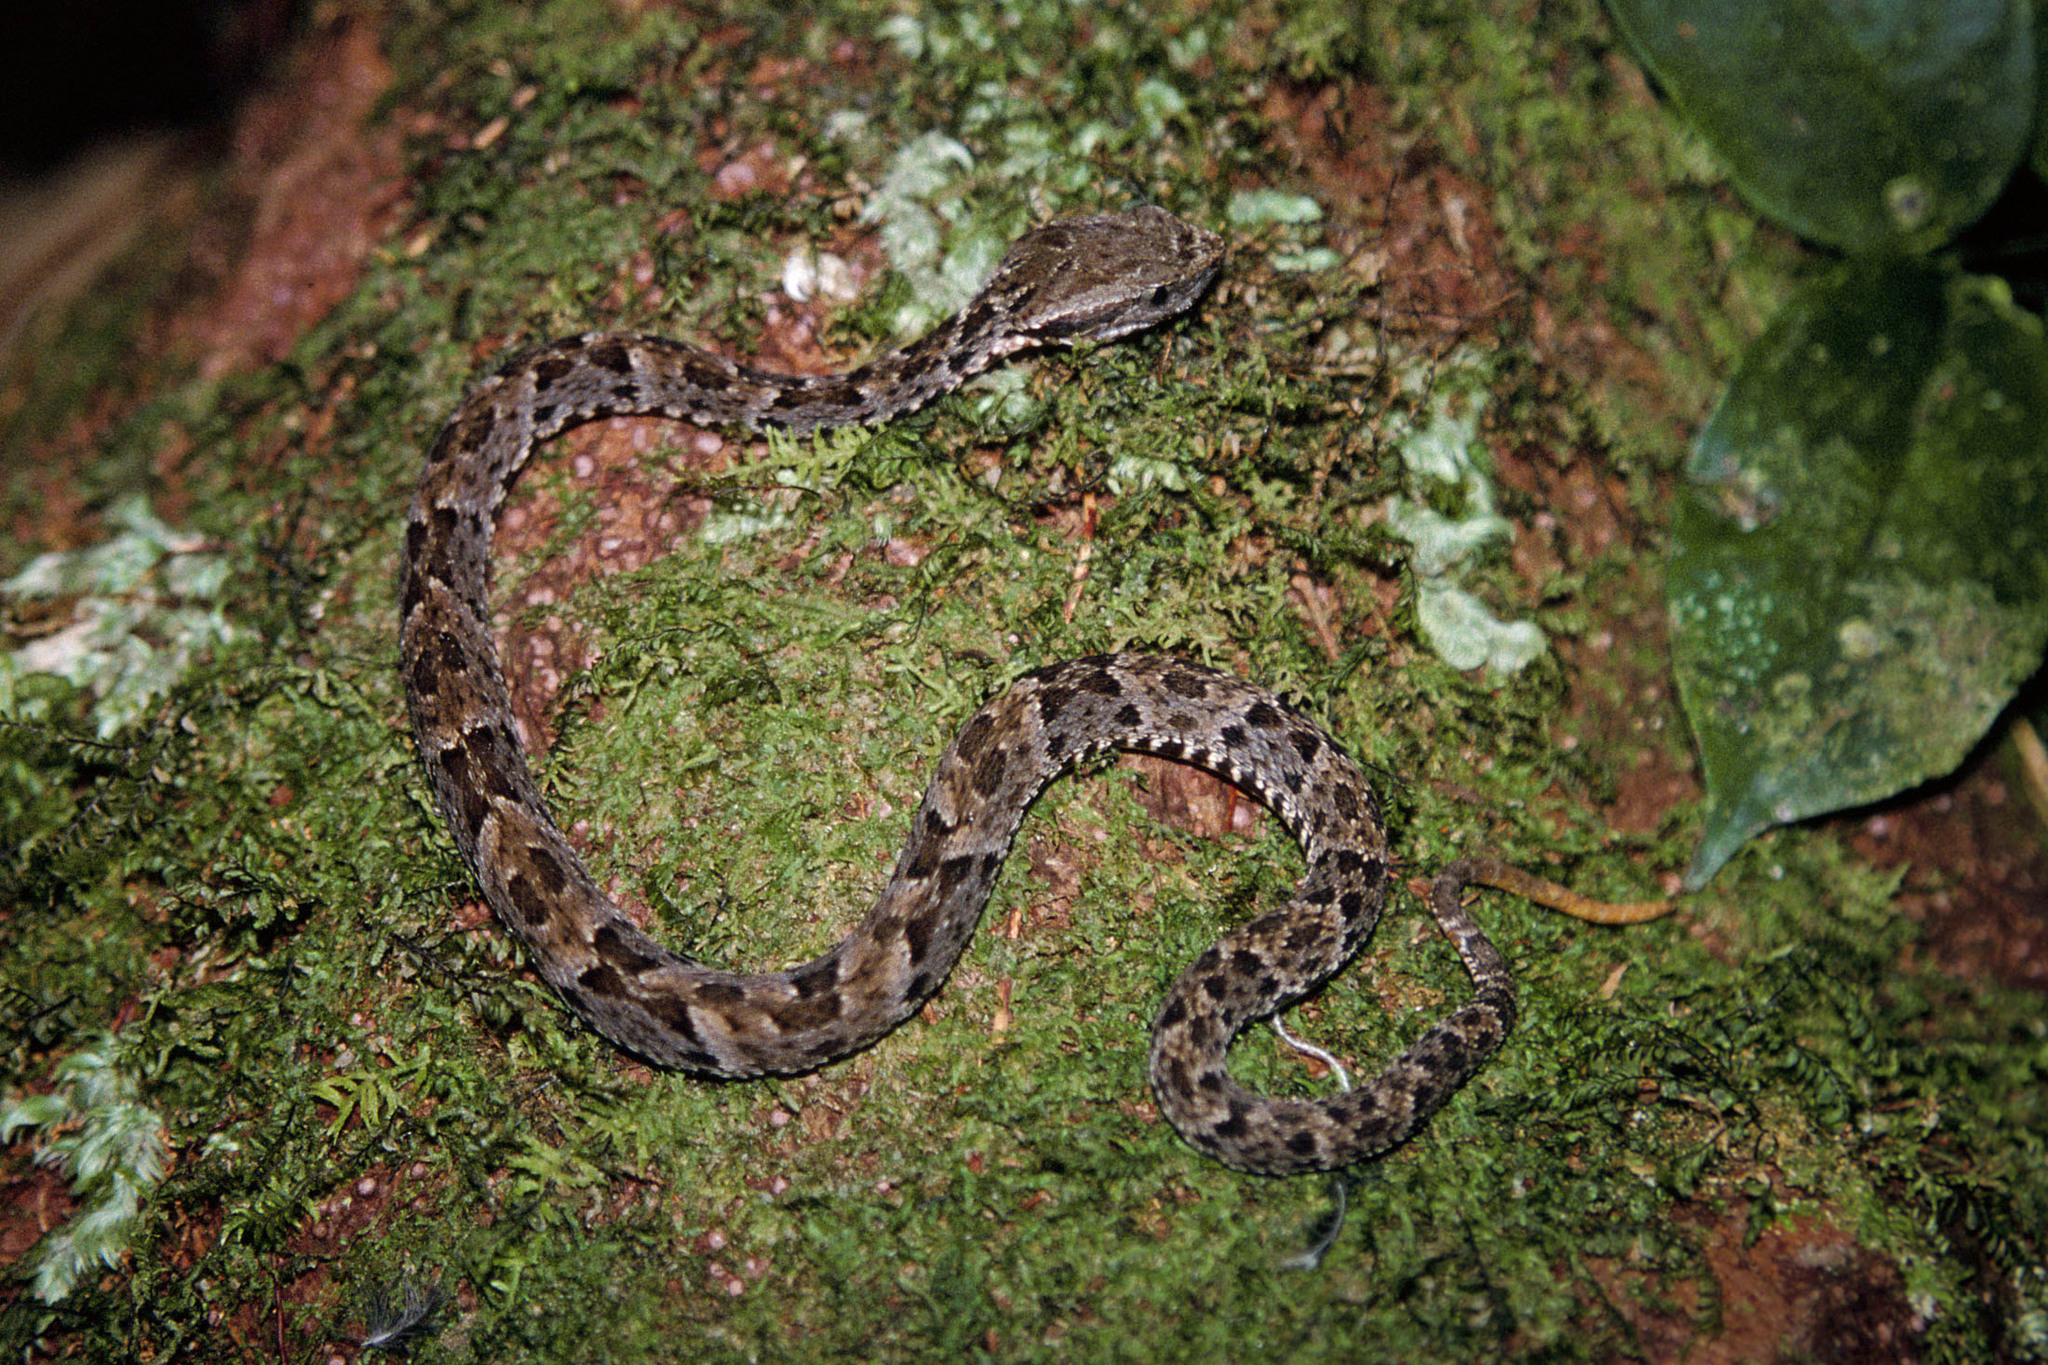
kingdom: Animalia
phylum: Chordata
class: Squamata
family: Viperidae
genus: Bothrops
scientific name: Bothrops atrox
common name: Common lancehead
